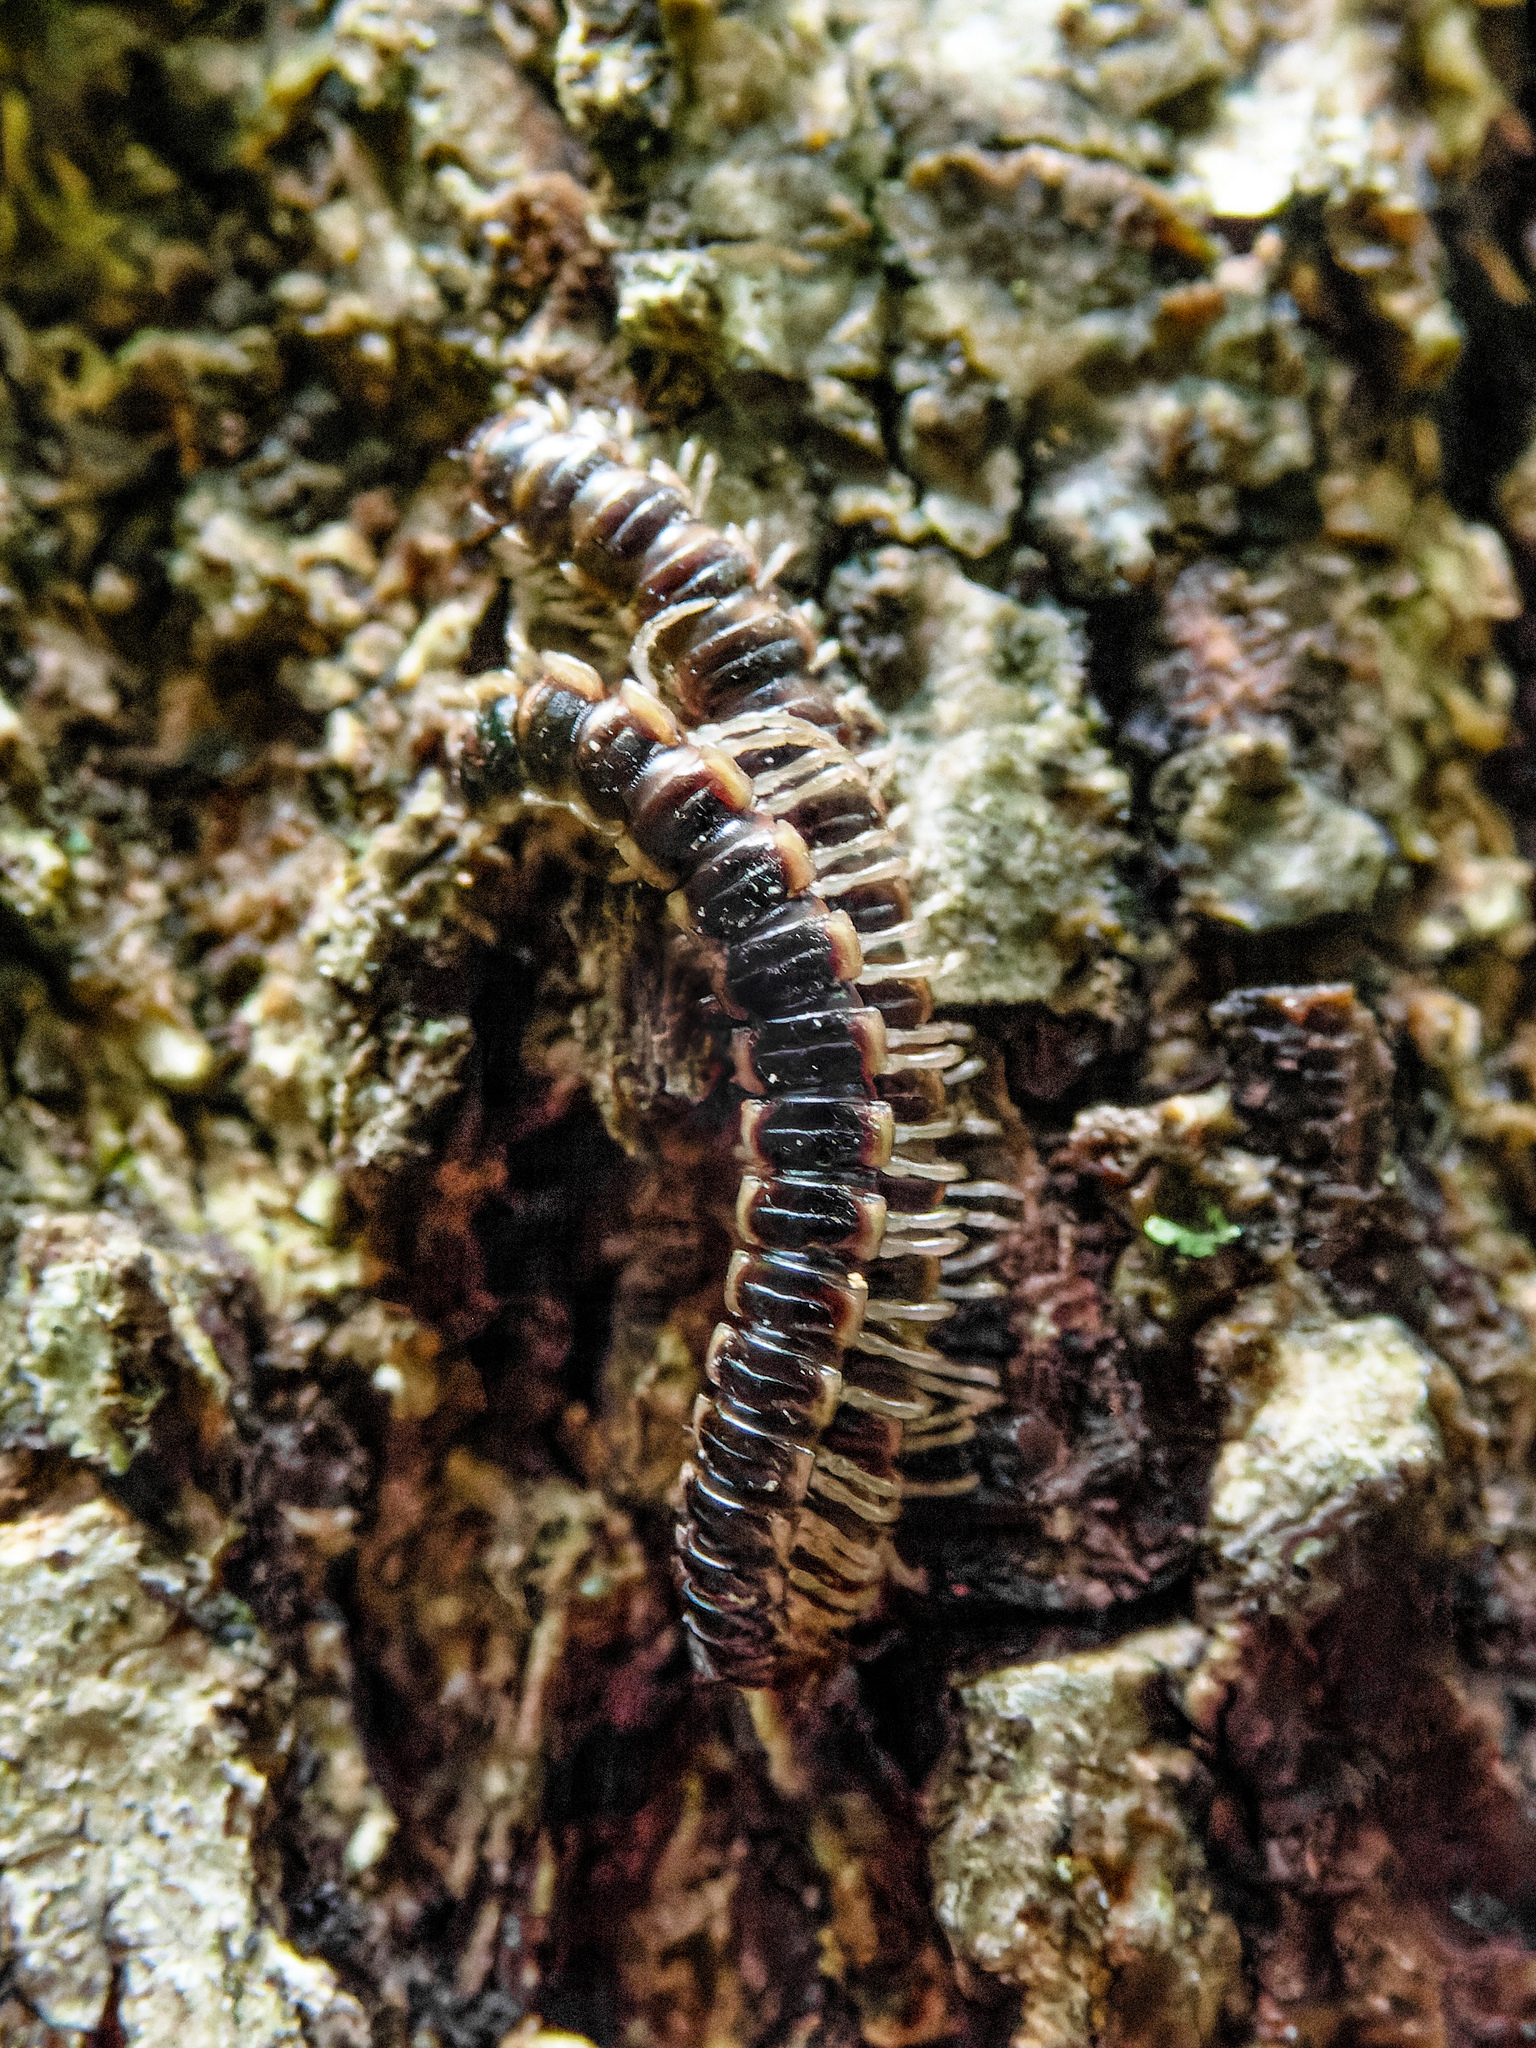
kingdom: Animalia
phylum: Arthropoda
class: Diplopoda
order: Polydesmida
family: Paradoxosomatidae
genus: Oxidus
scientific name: Oxidus gracilis
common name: Greenhouse millipede
